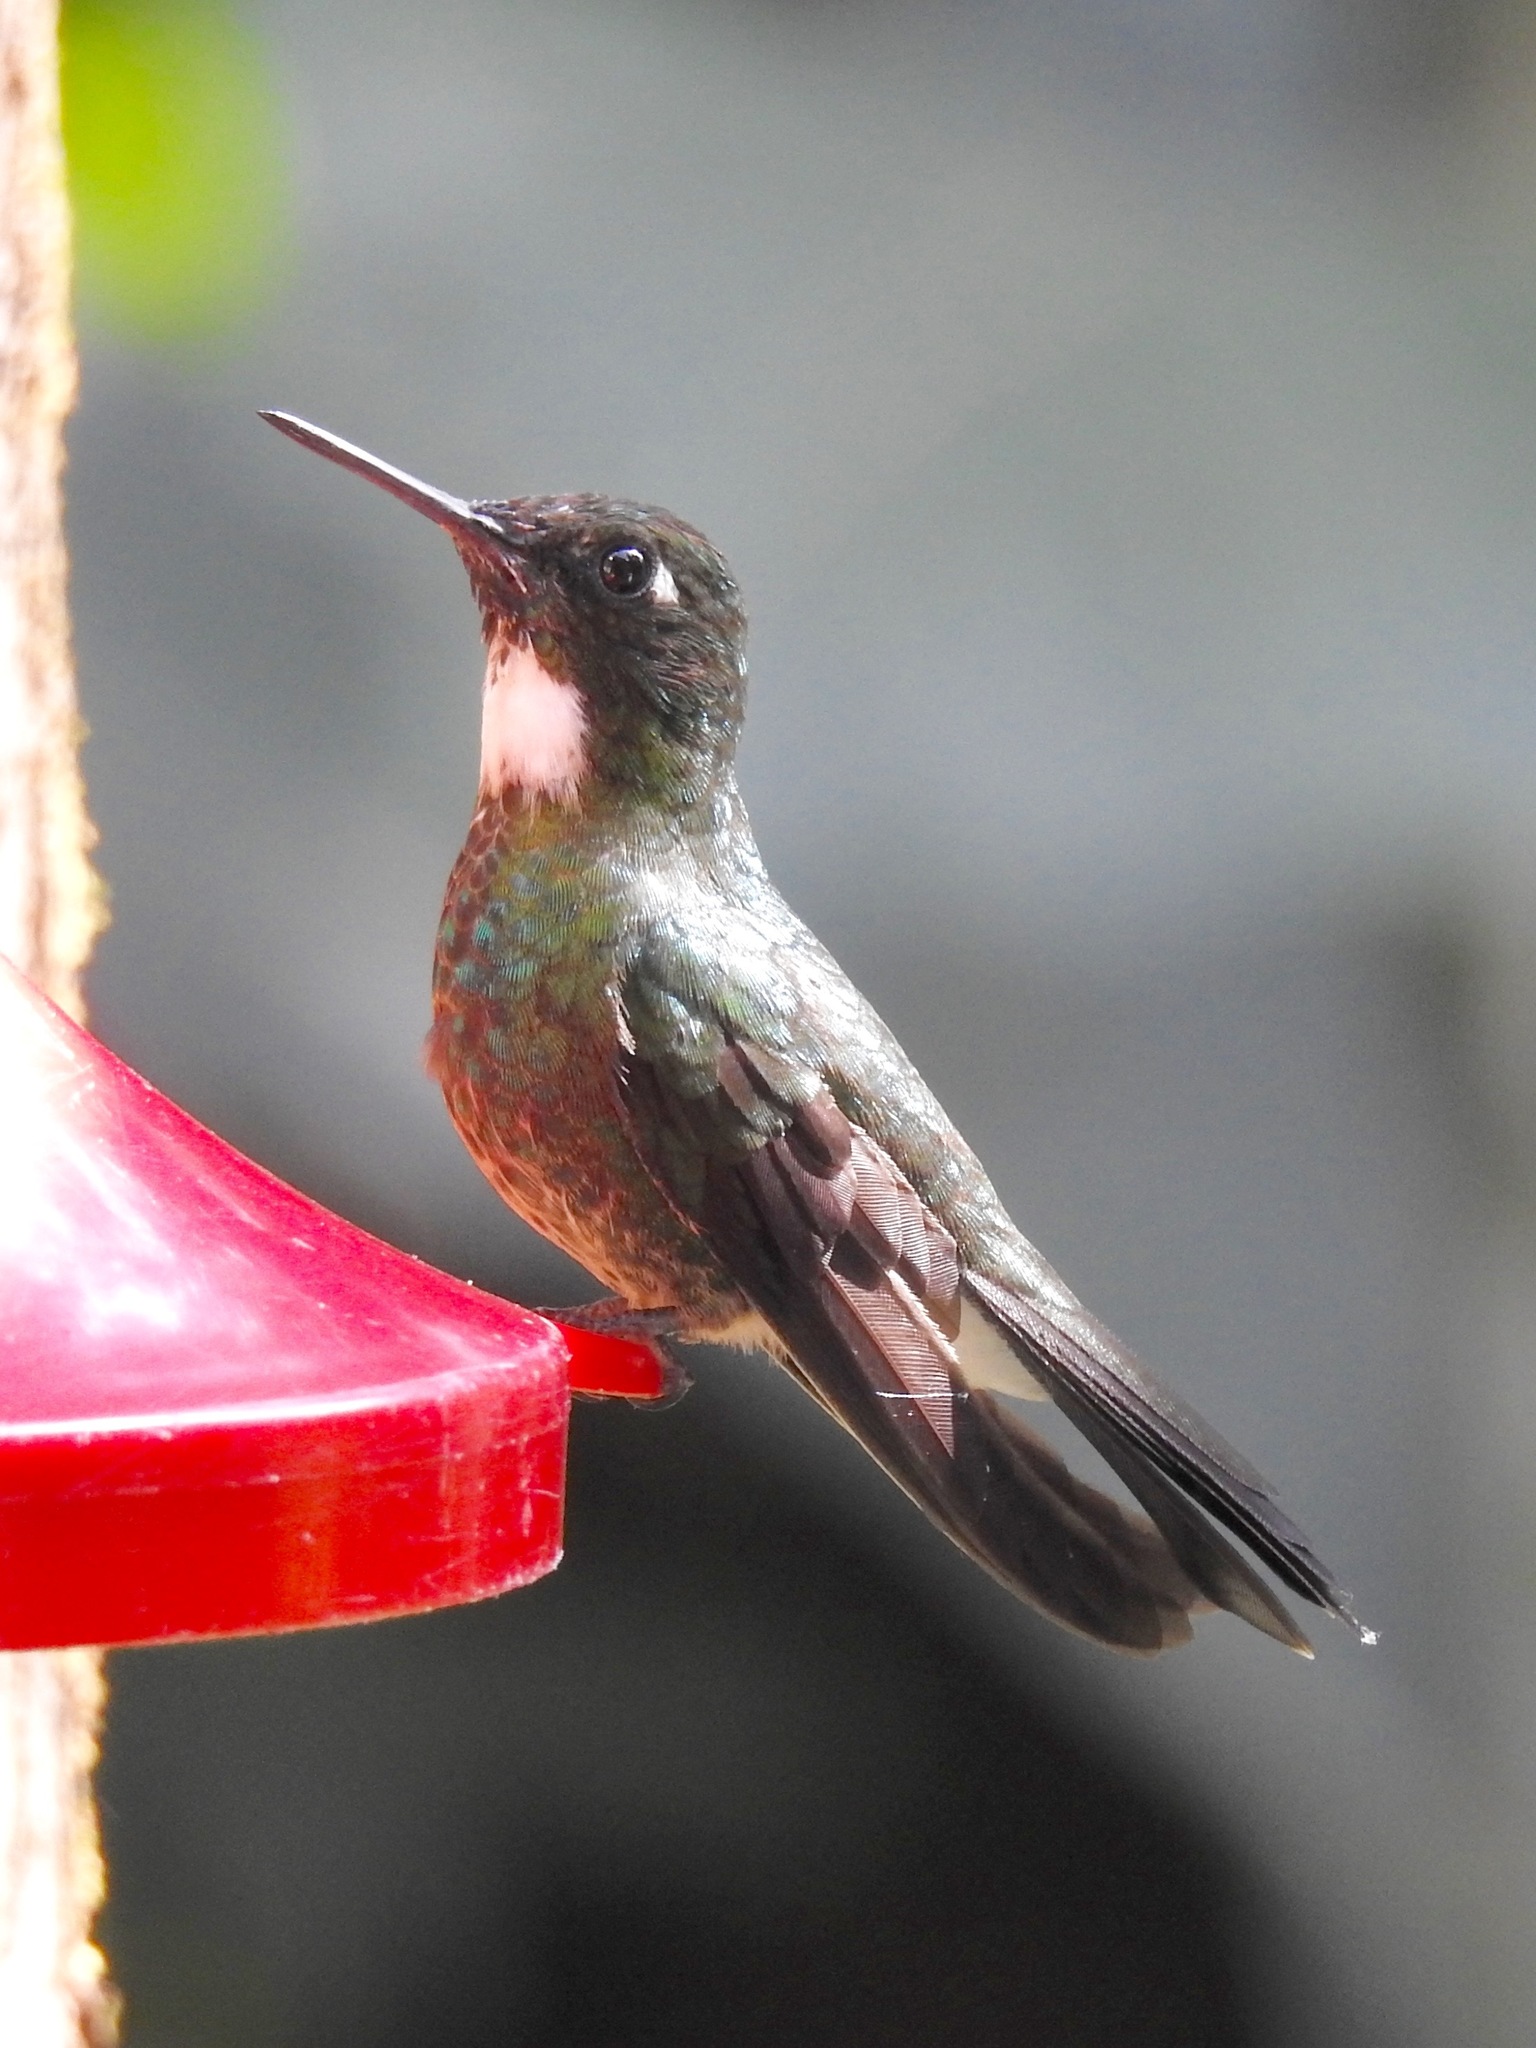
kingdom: Animalia
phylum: Chordata
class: Aves
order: Apodiformes
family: Trochilidae
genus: Heliangelus
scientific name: Heliangelus exortis
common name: Tourmaline sunangel
